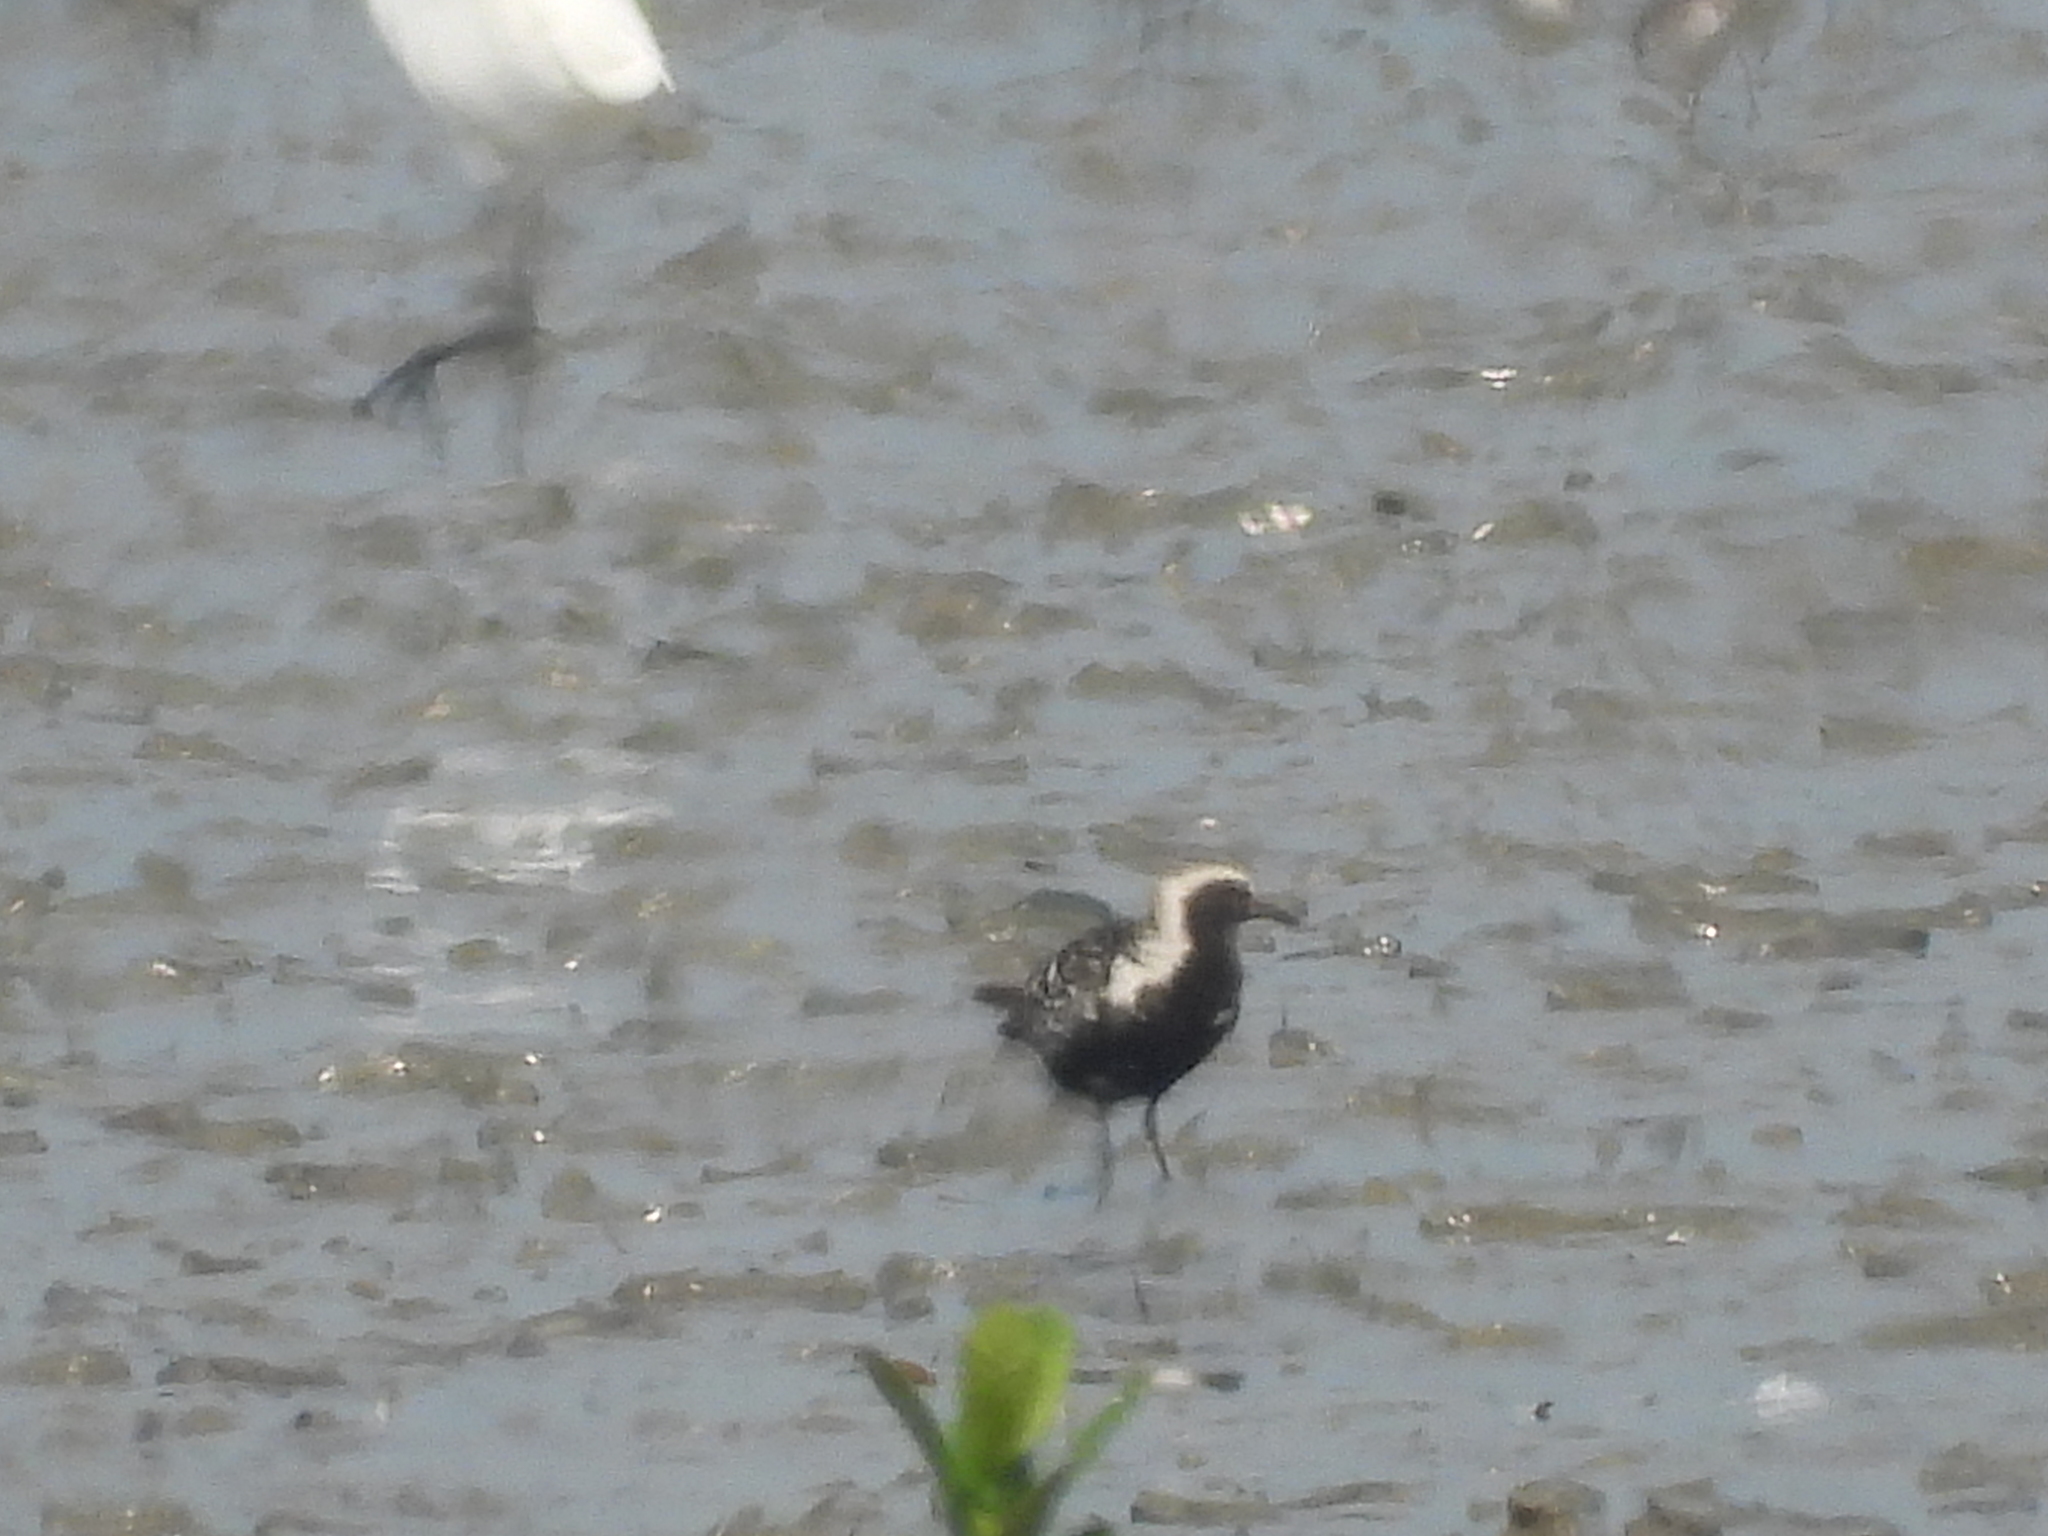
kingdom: Animalia
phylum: Chordata
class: Aves
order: Charadriiformes
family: Charadriidae
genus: Pluvialis
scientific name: Pluvialis fulva
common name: Pacific golden plover
